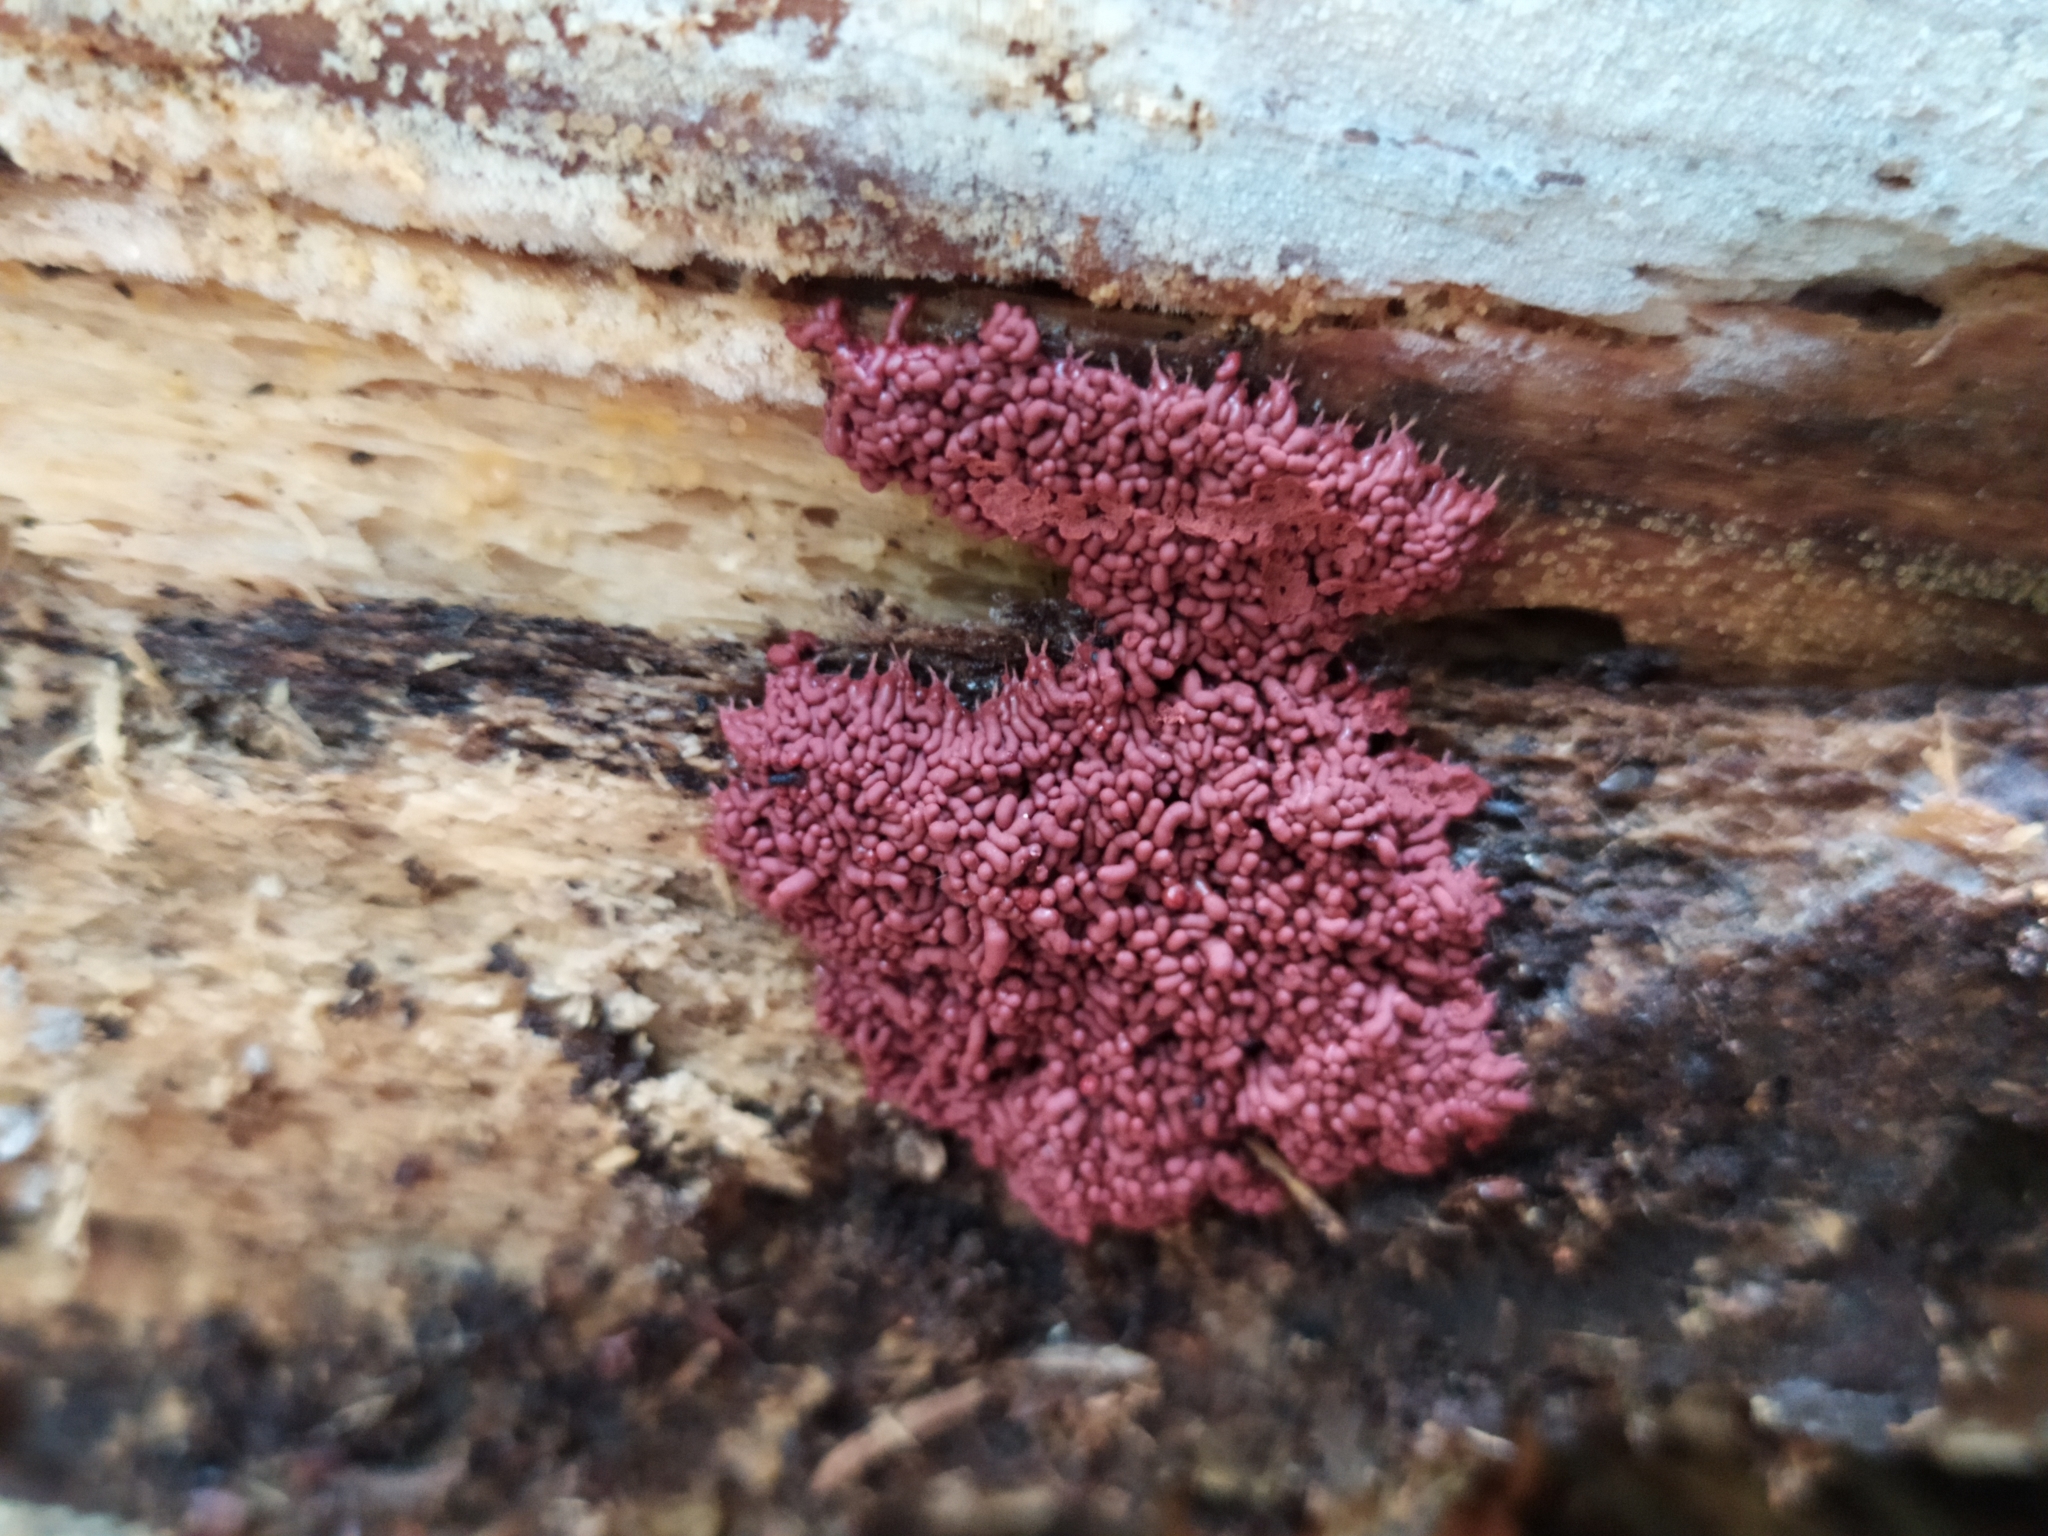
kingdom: Protozoa
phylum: Mycetozoa
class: Myxomycetes
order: Trichiales
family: Arcyriaceae
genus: Arcyria
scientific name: Arcyria stipata
